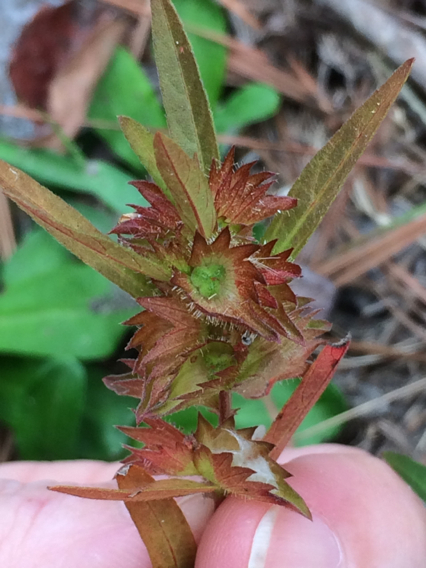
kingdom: Plantae
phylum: Tracheophyta
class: Magnoliopsida
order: Malpighiales
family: Euphorbiaceae
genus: Acalypha
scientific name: Acalypha gracilens
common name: Slender three-seeded mercury
